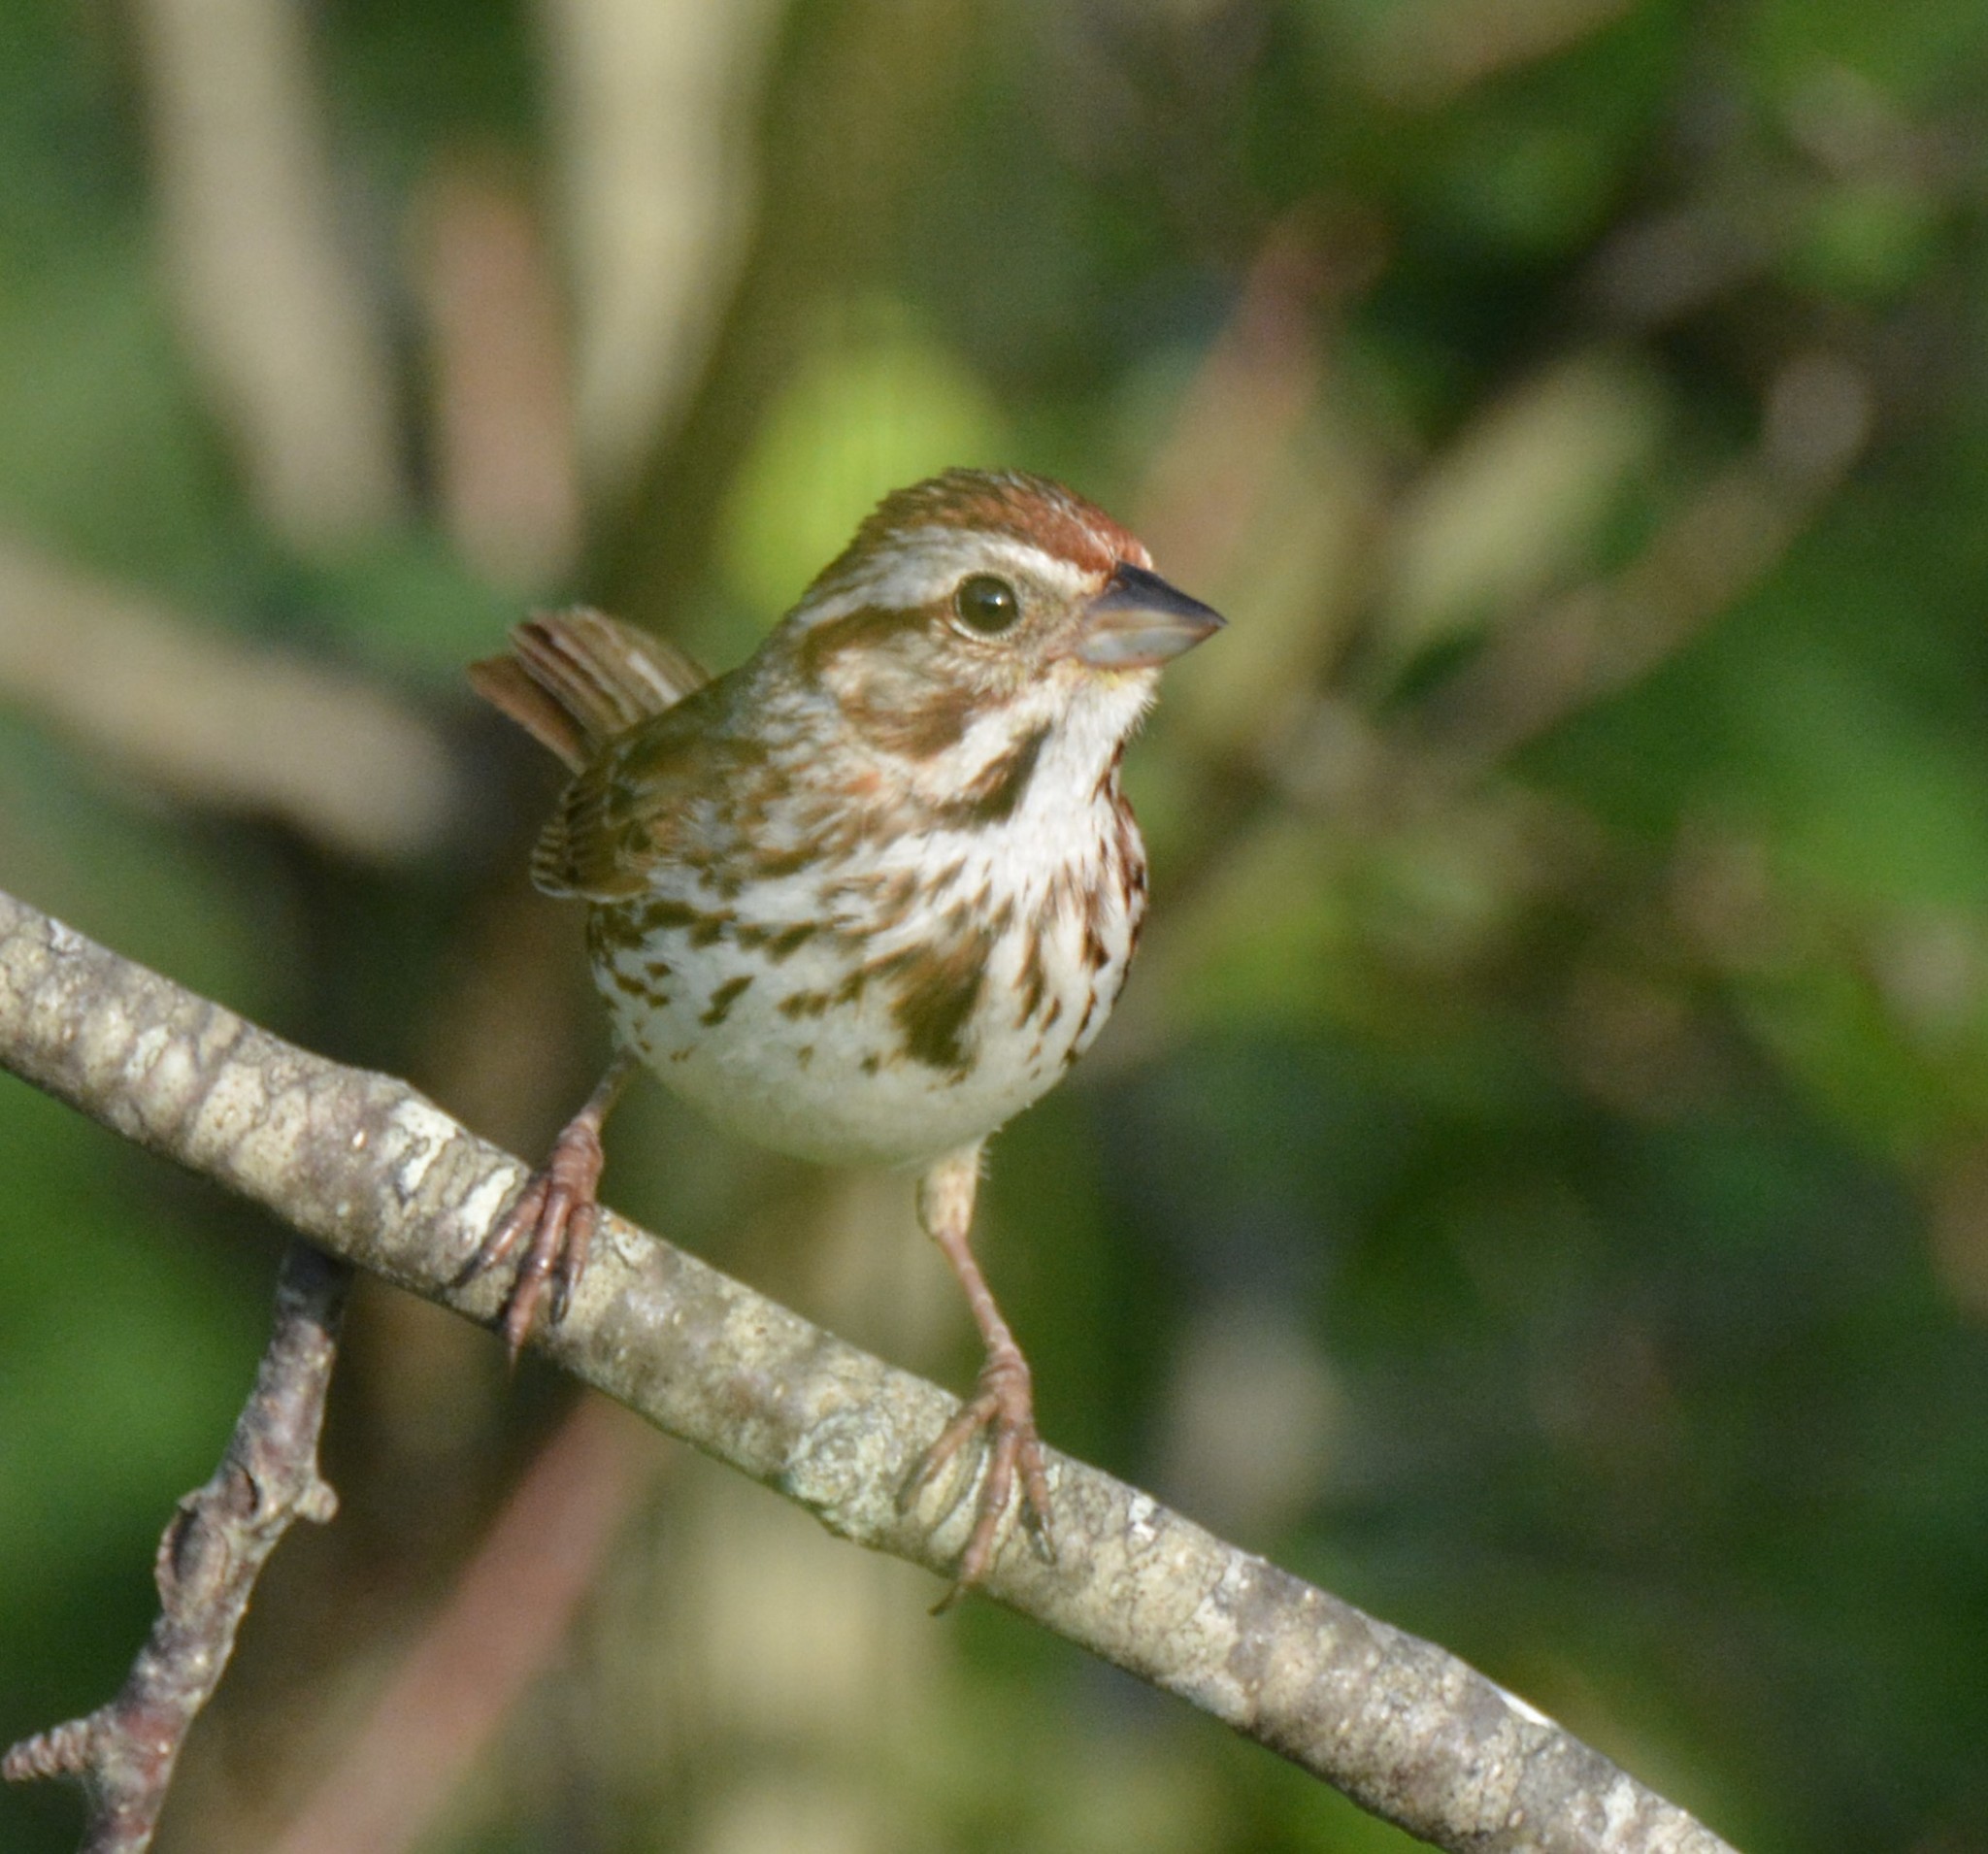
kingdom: Animalia
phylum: Chordata
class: Aves
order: Passeriformes
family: Passerellidae
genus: Melospiza
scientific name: Melospiza melodia
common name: Song sparrow
